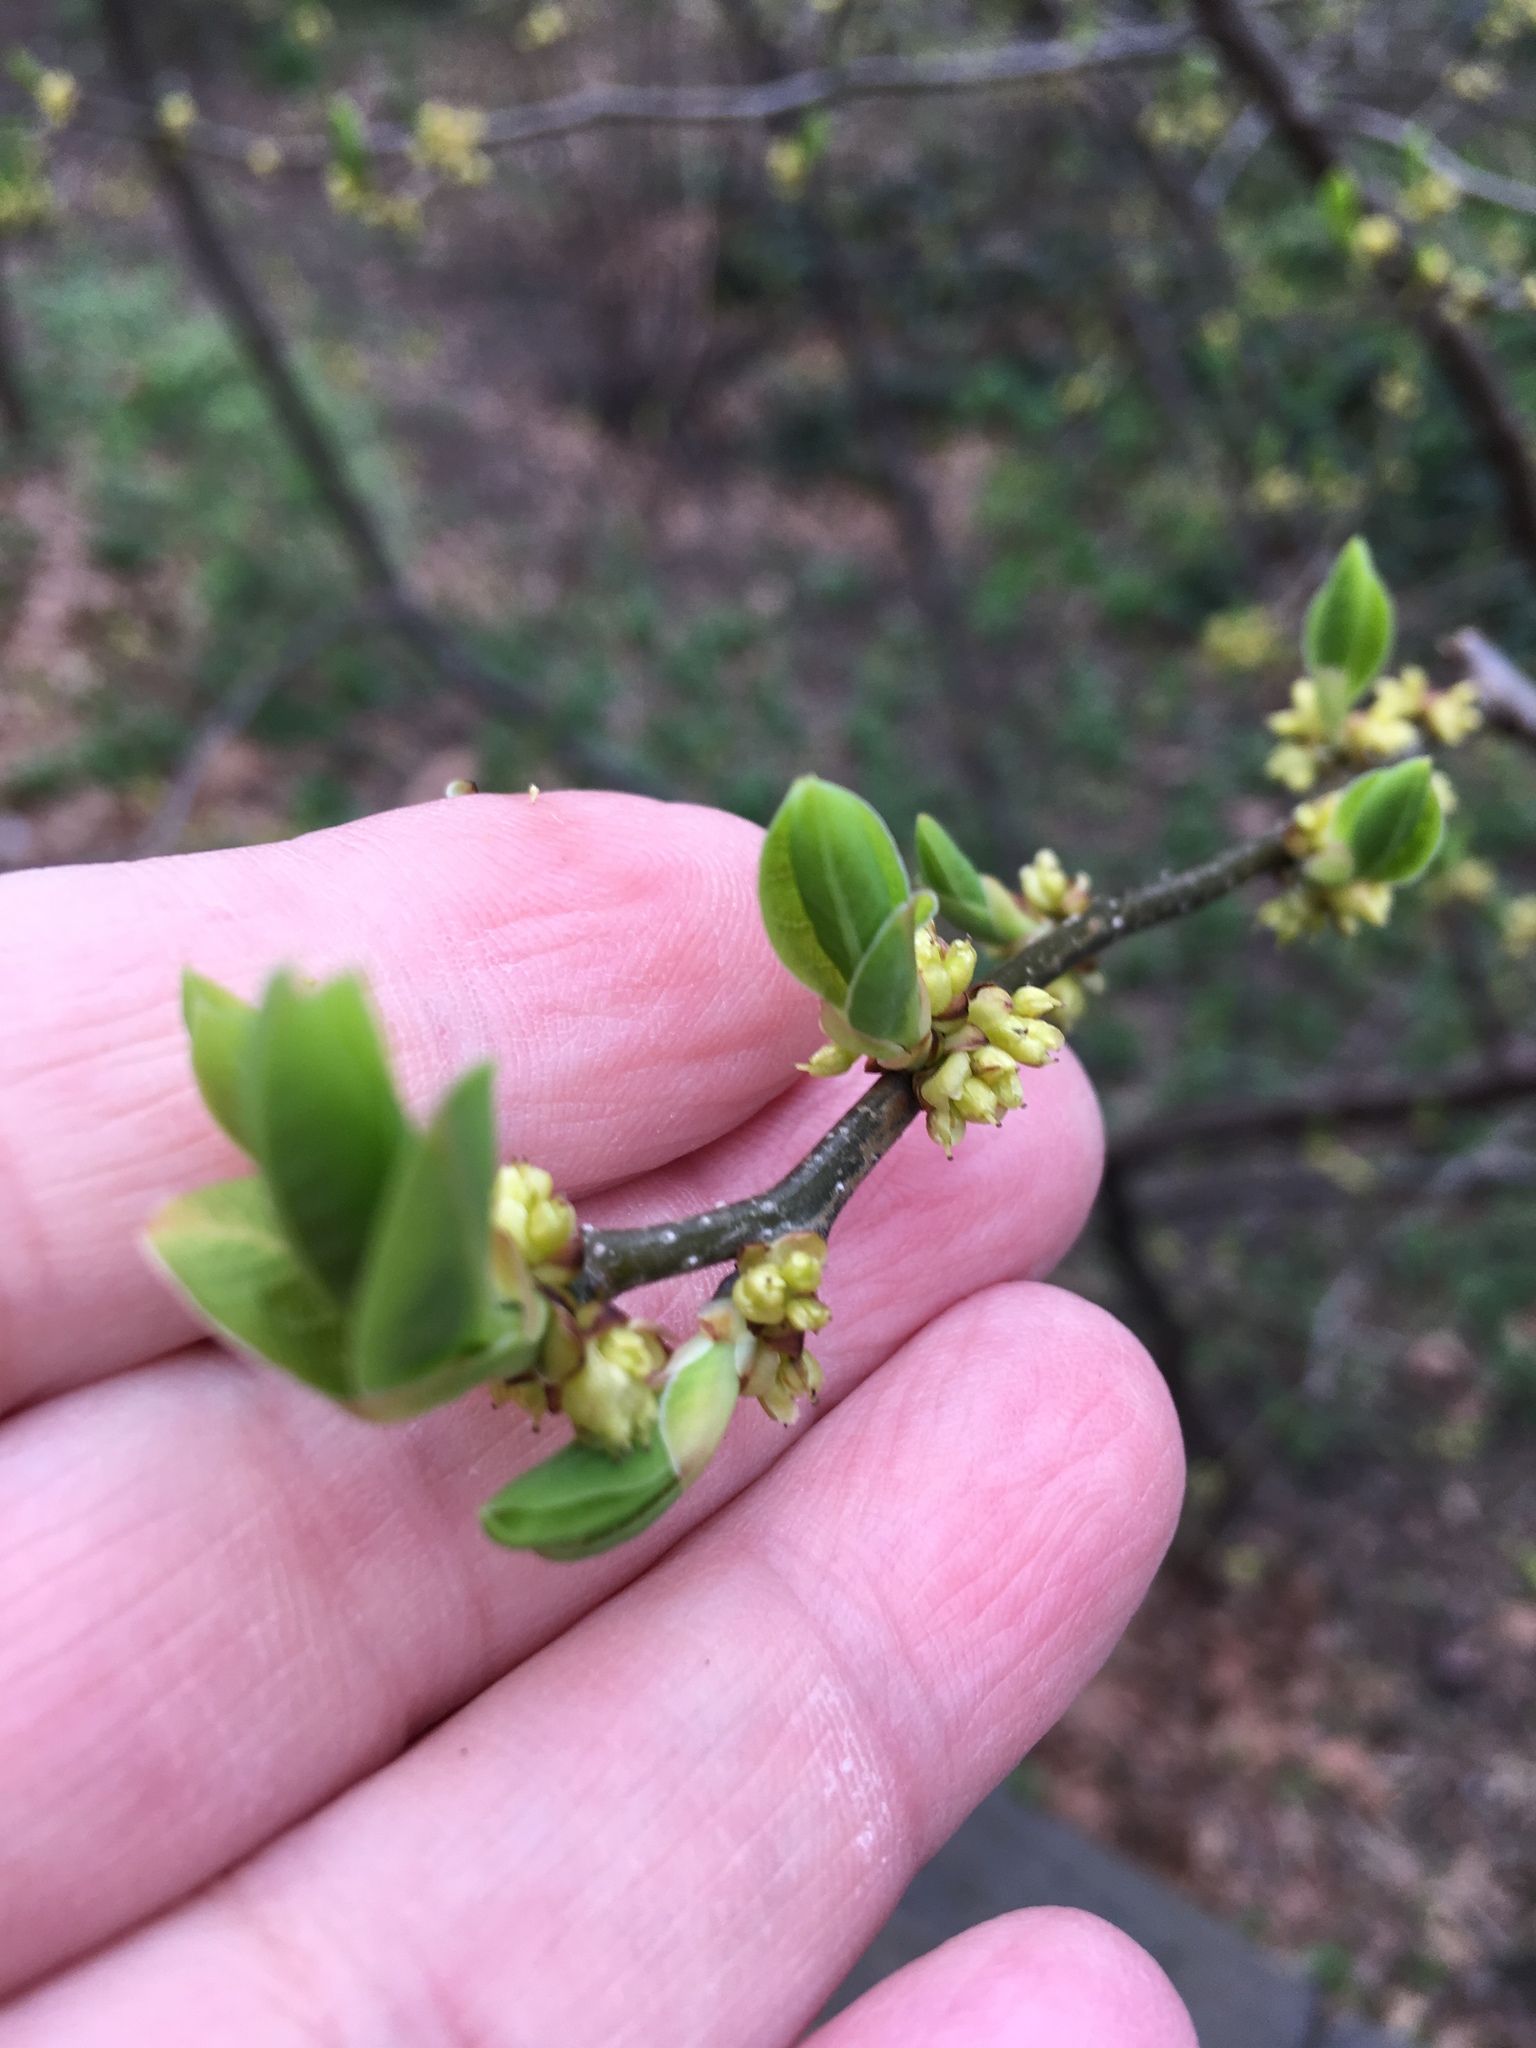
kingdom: Plantae
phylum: Tracheophyta
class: Magnoliopsida
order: Laurales
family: Lauraceae
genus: Lindera
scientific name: Lindera benzoin
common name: Spicebush
